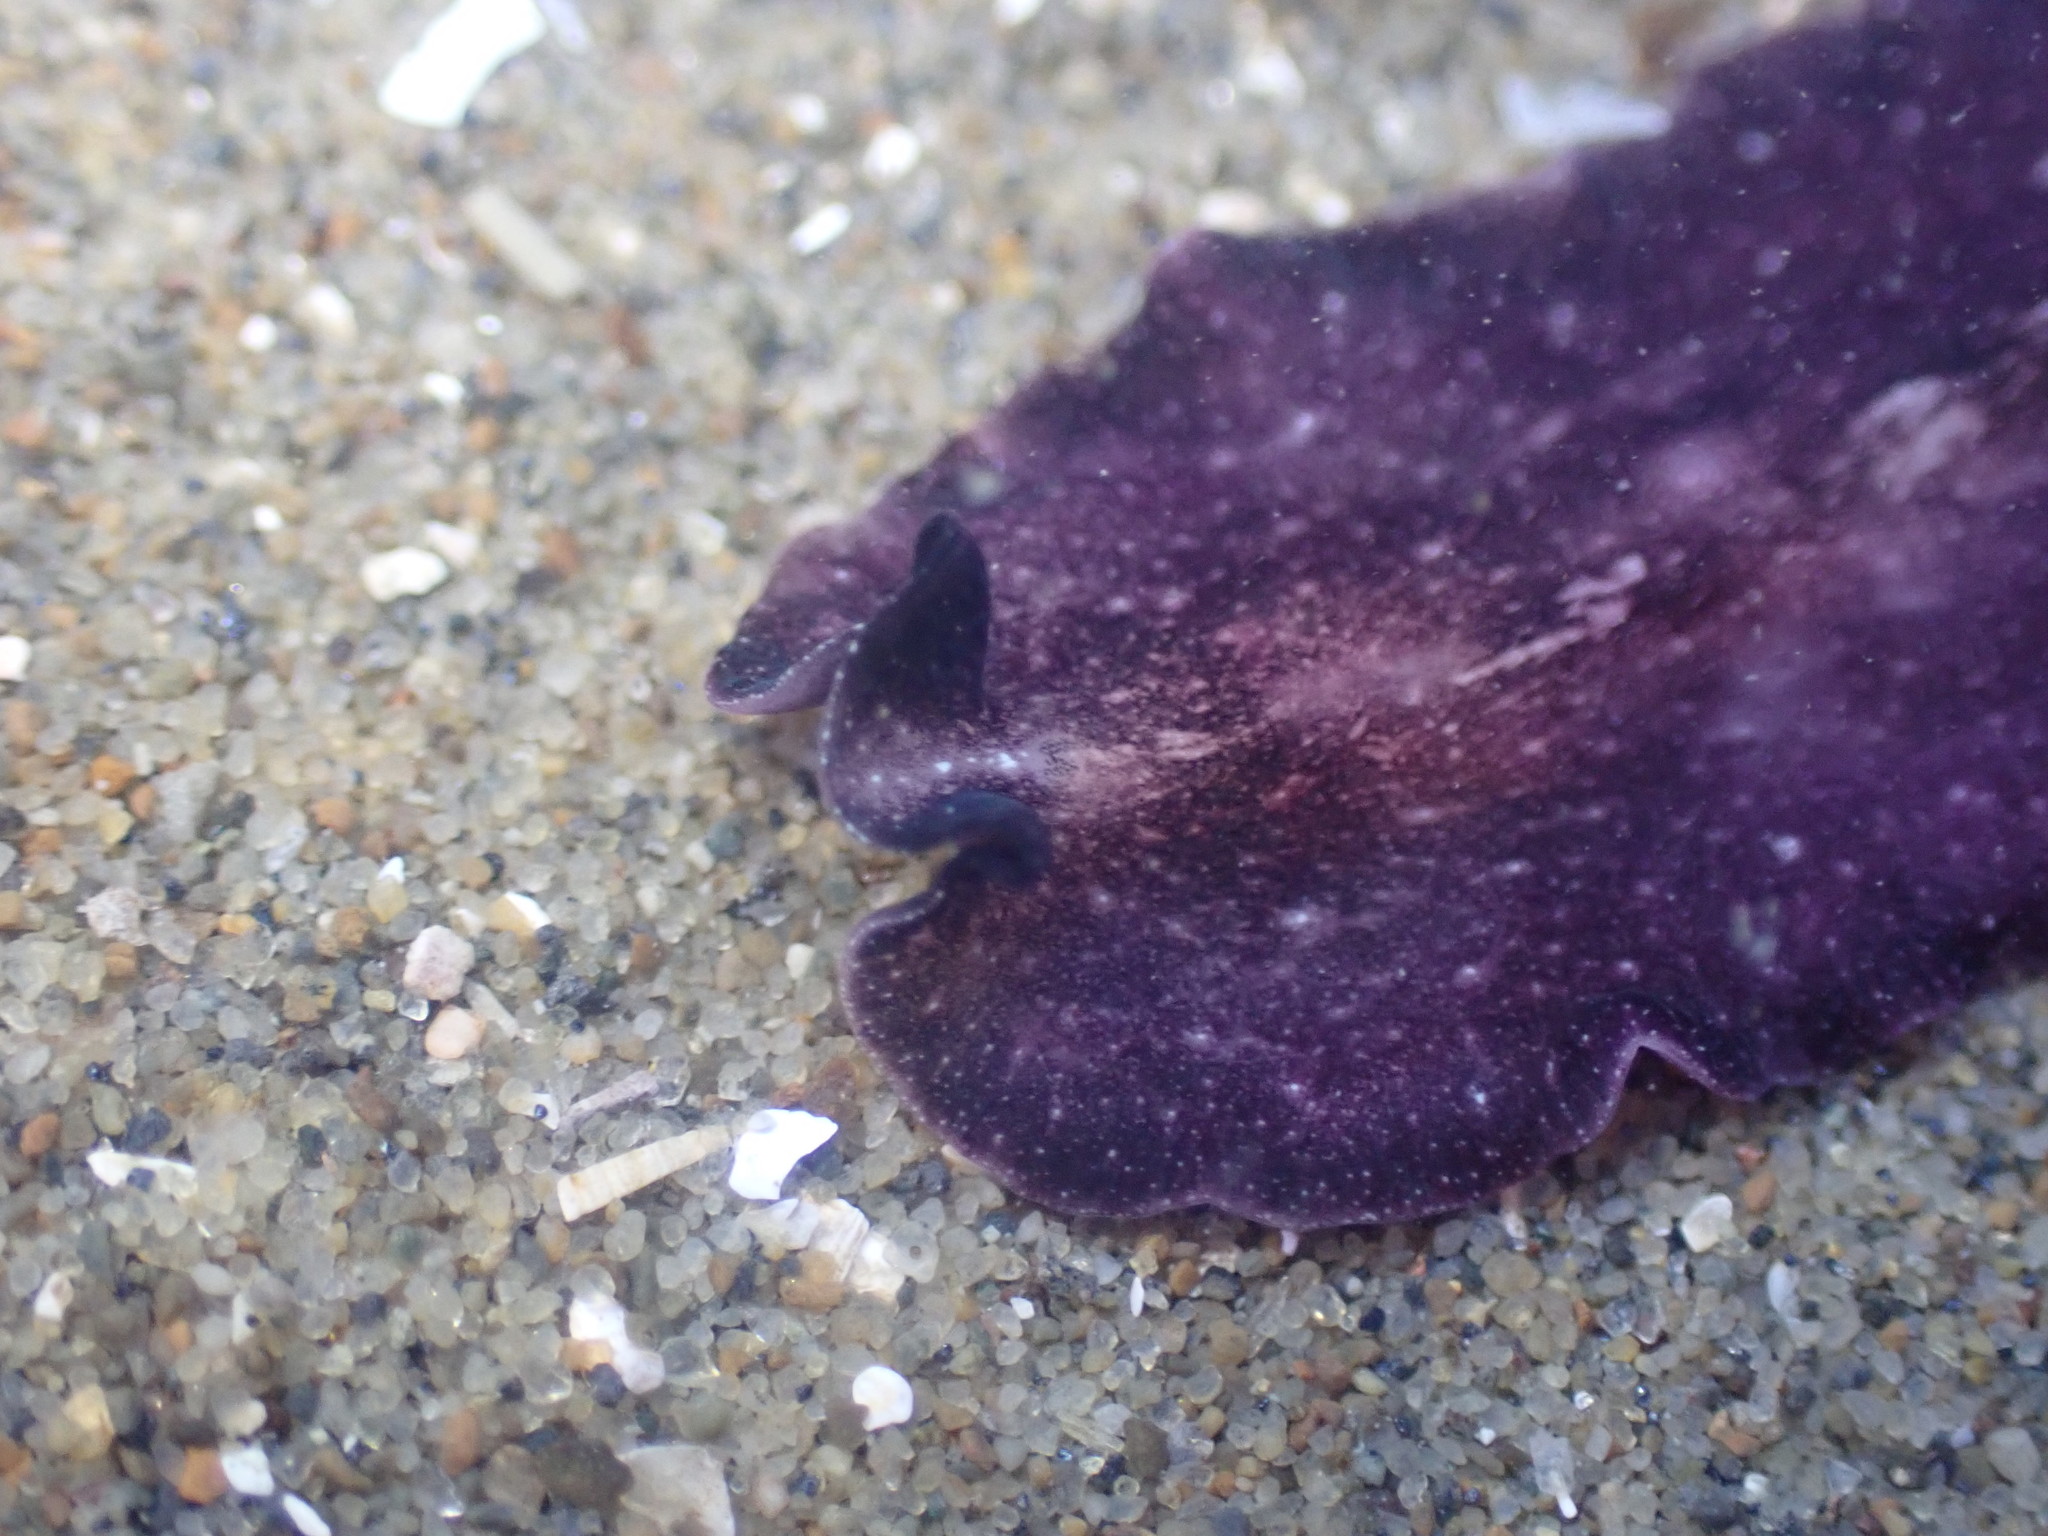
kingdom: Animalia
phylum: Platyhelminthes
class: Turbellaria
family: Pseudocerotidae
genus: Pseudoceros
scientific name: Pseudoceros bolool
